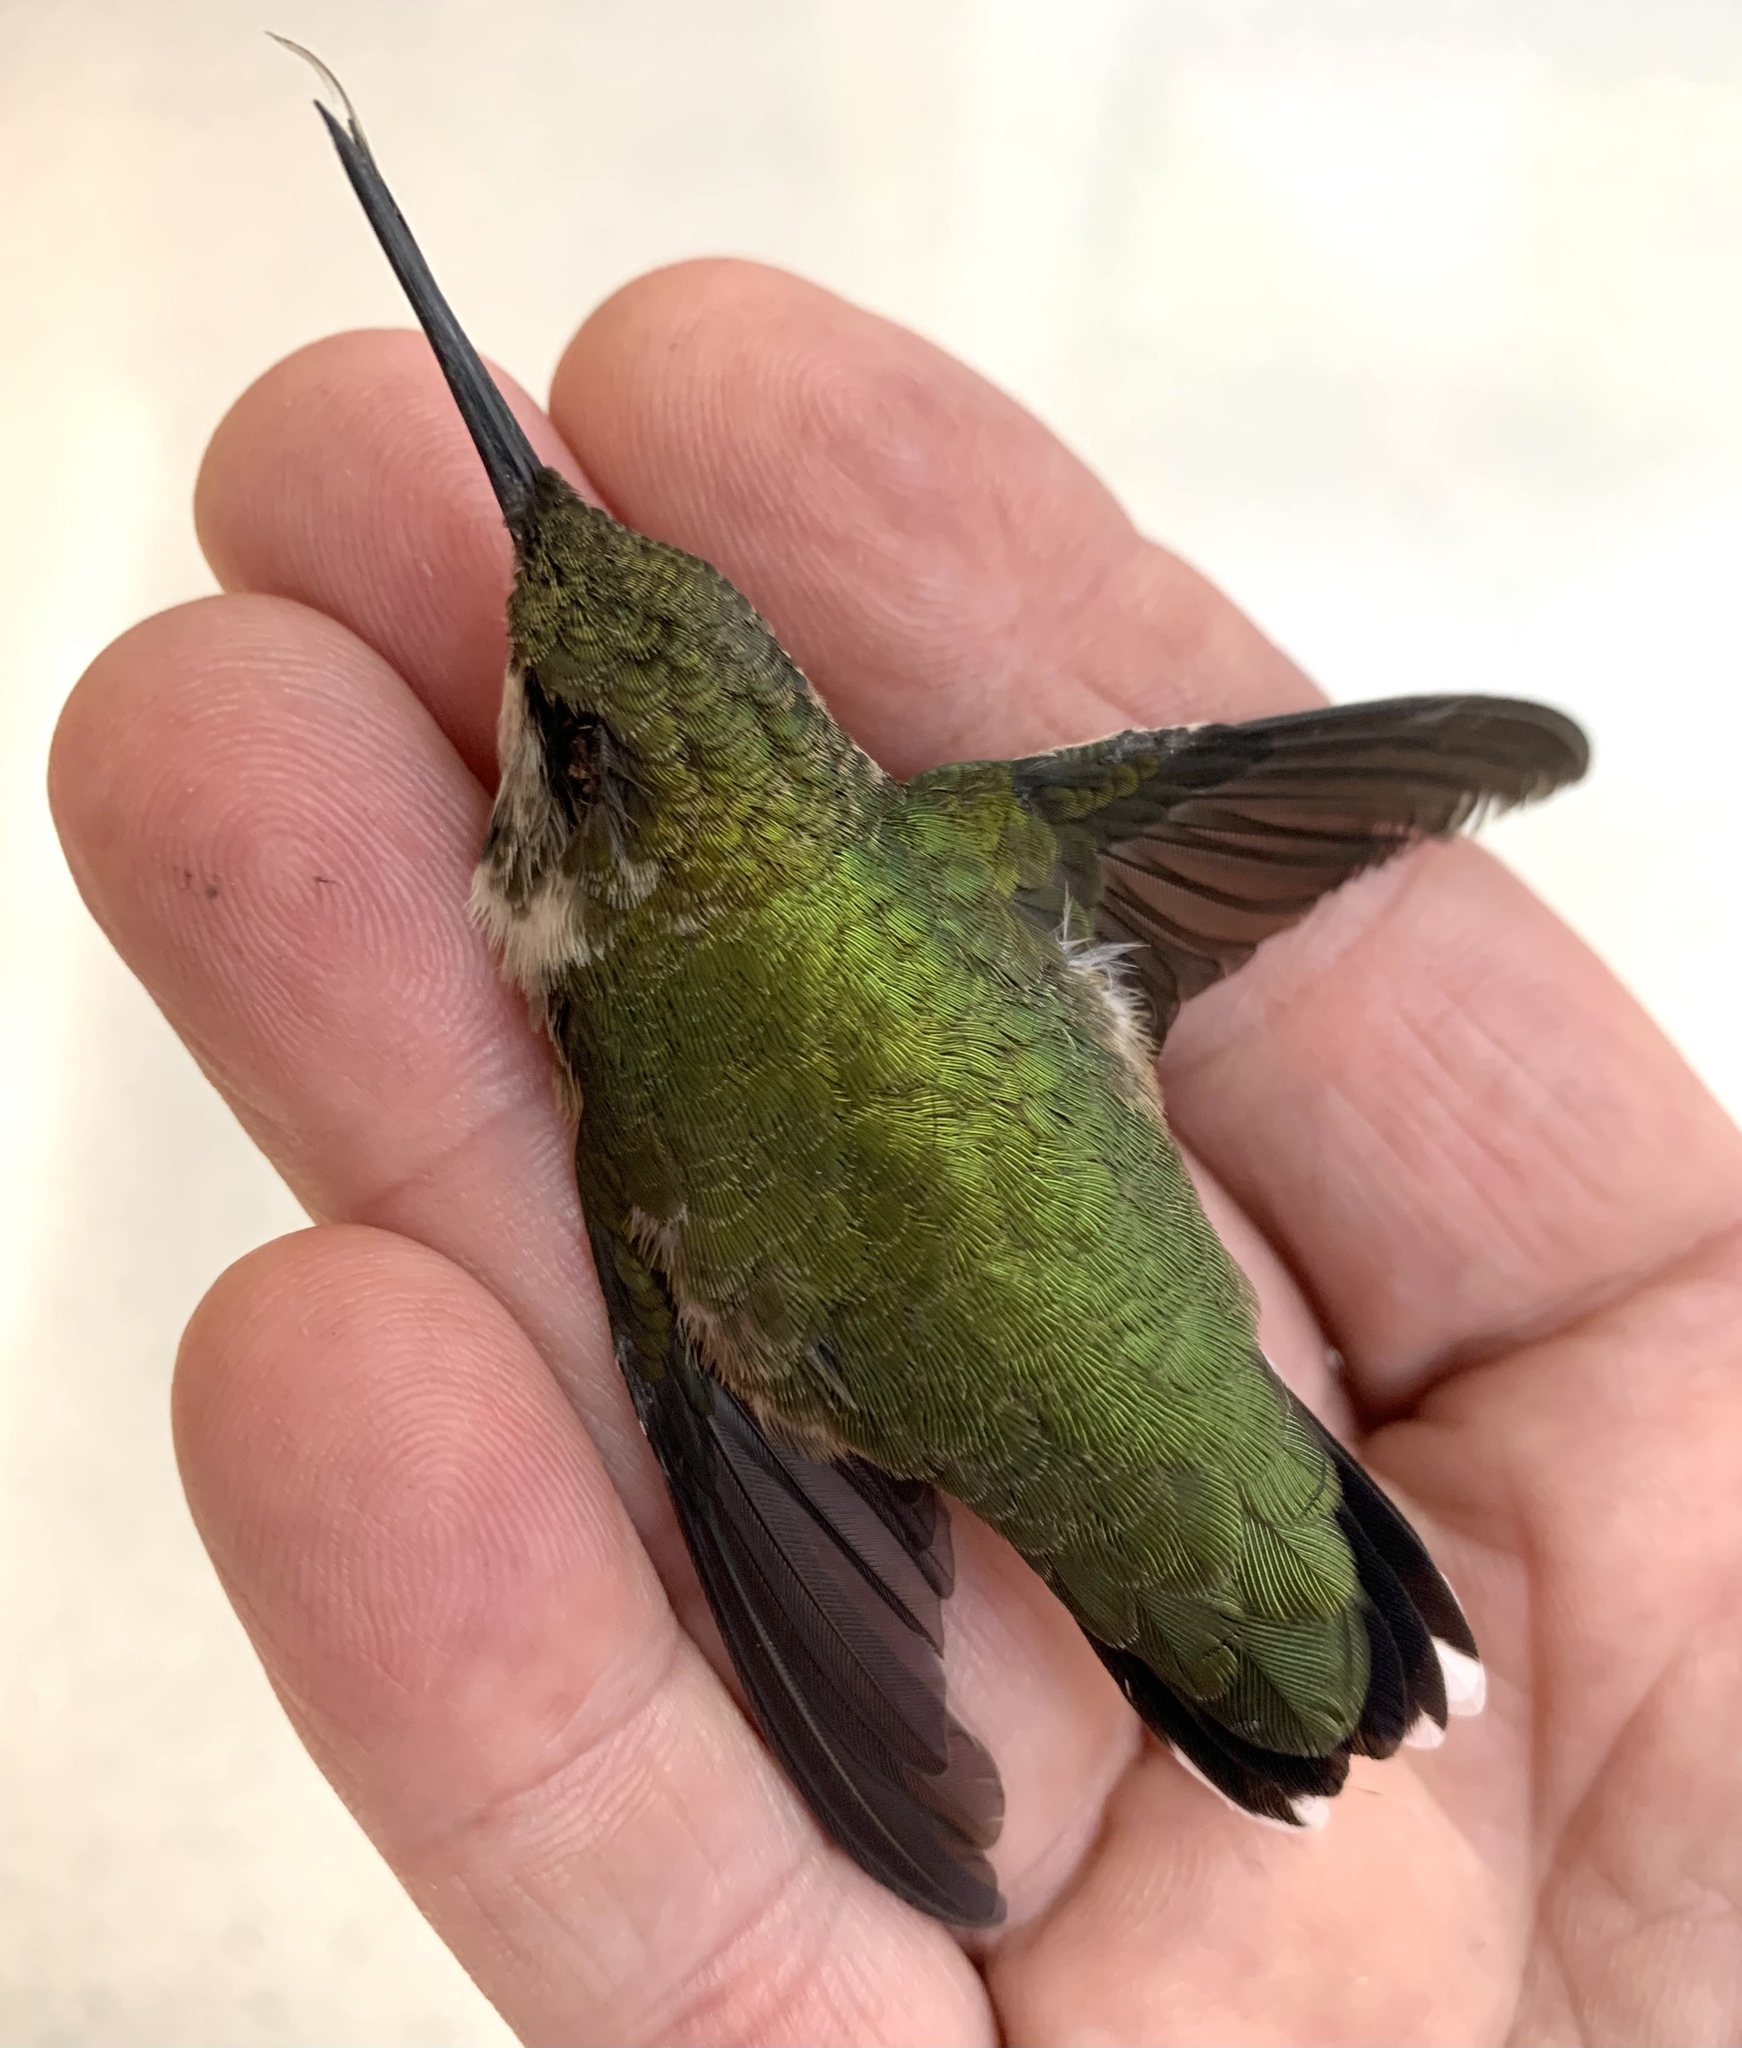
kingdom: Animalia
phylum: Chordata
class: Aves
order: Apodiformes
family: Trochilidae
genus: Archilochus
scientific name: Archilochus colubris
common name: Ruby-throated hummingbird
